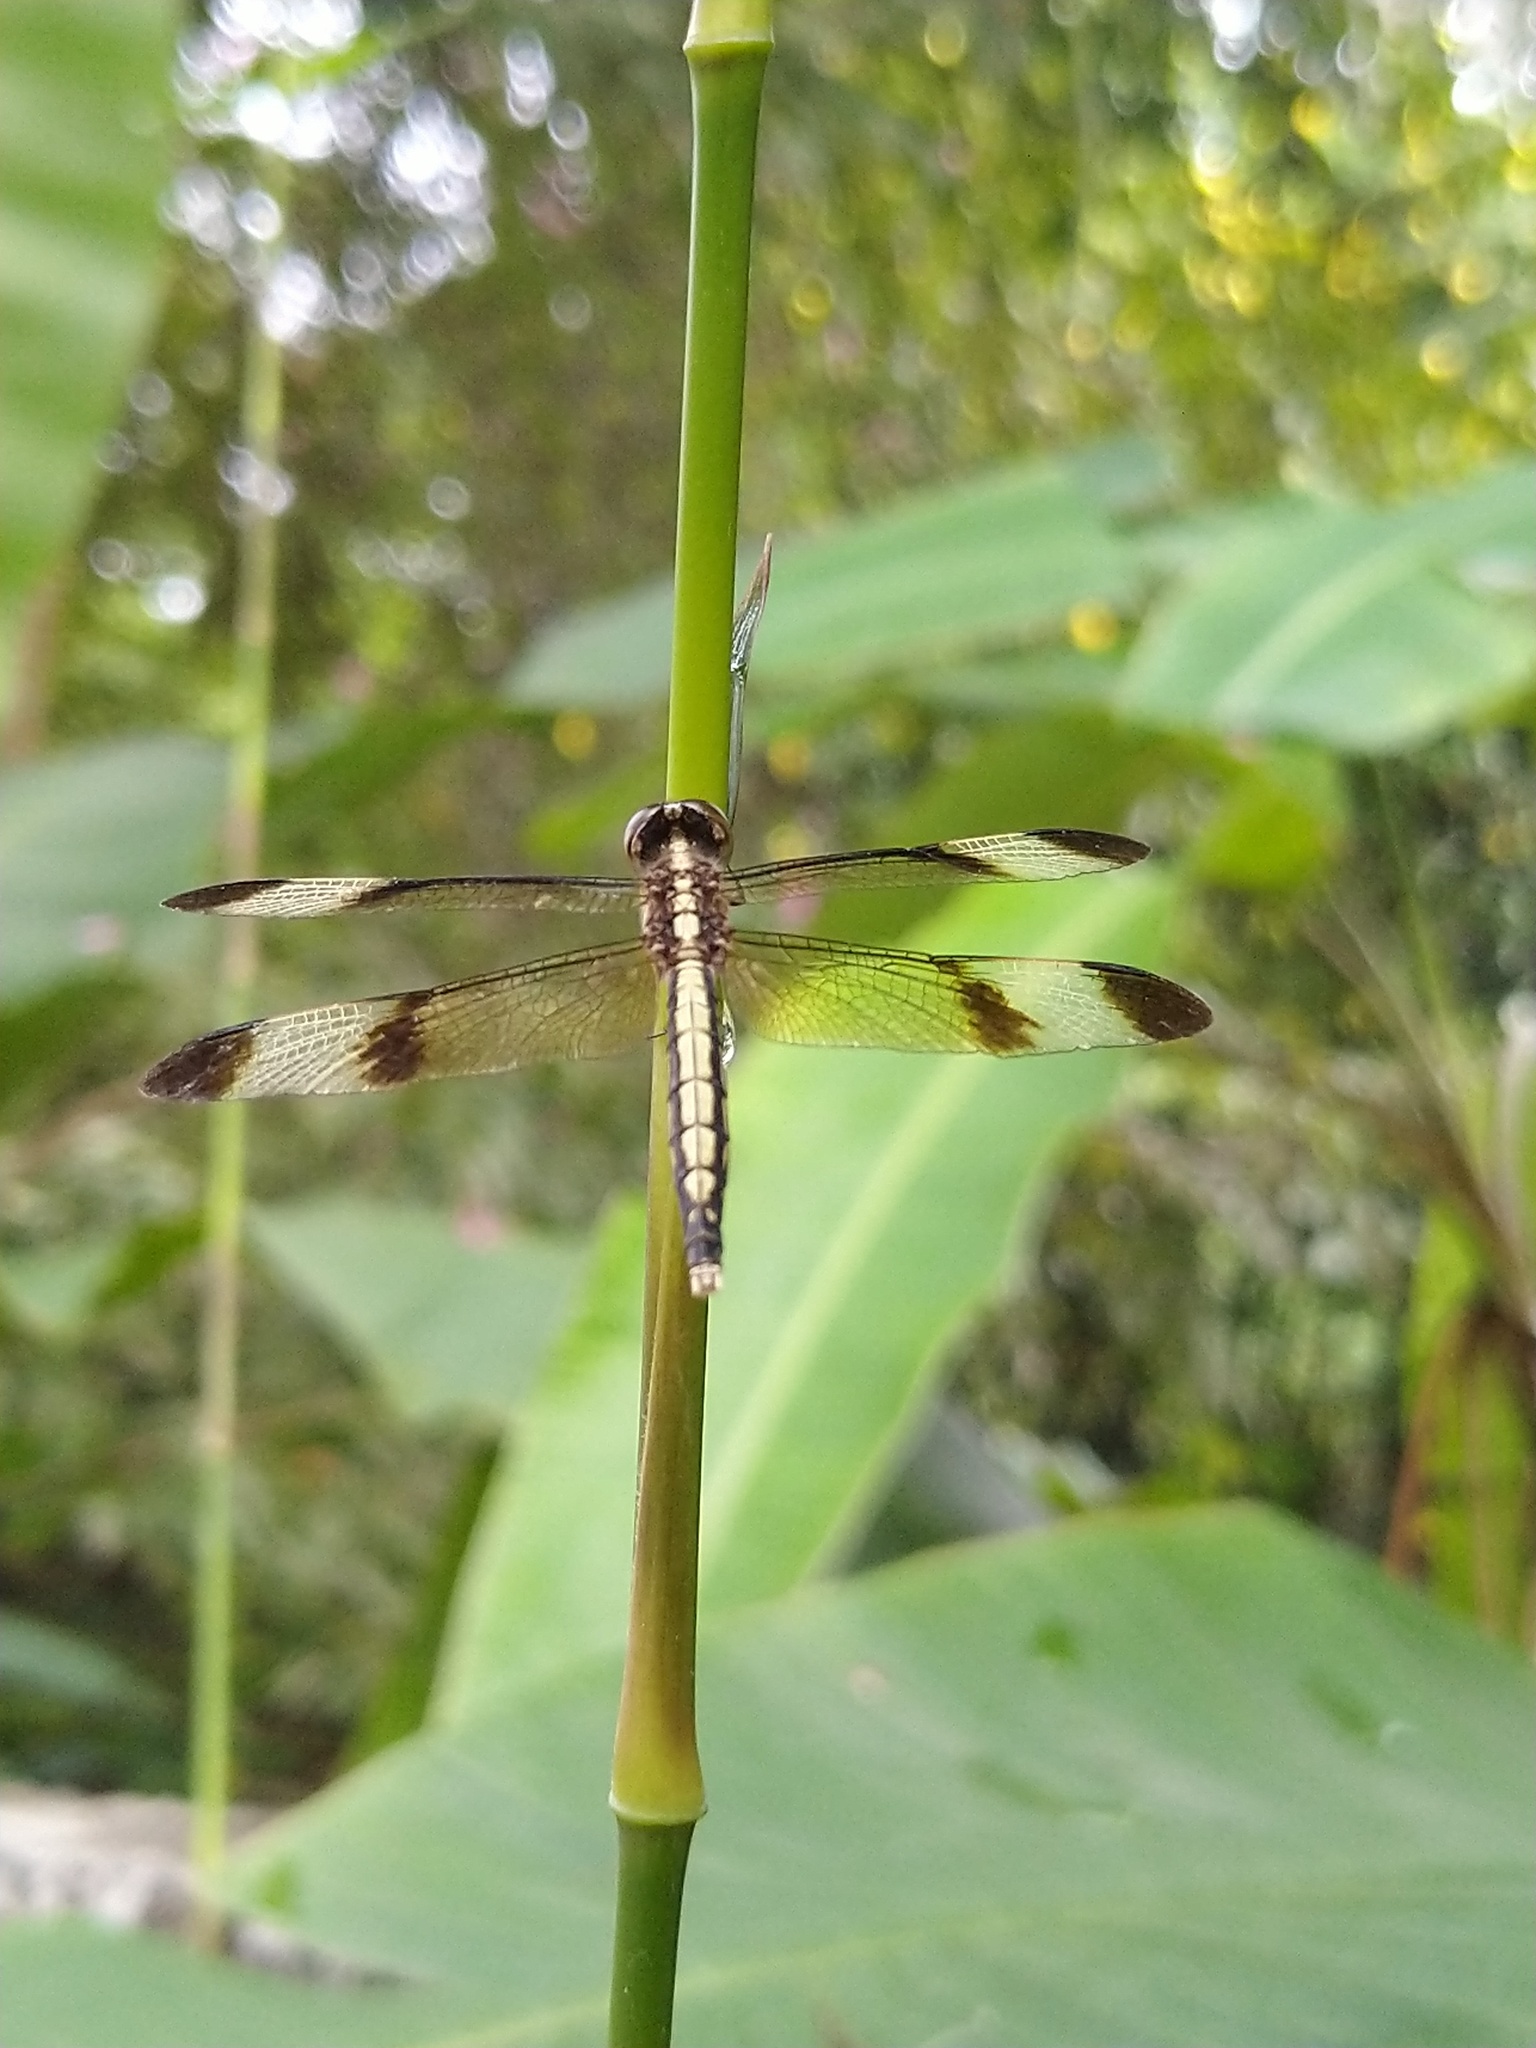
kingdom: Animalia
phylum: Arthropoda
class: Insecta
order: Odonata
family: Libellulidae
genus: Neurothemis
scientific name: Neurothemis tullia
